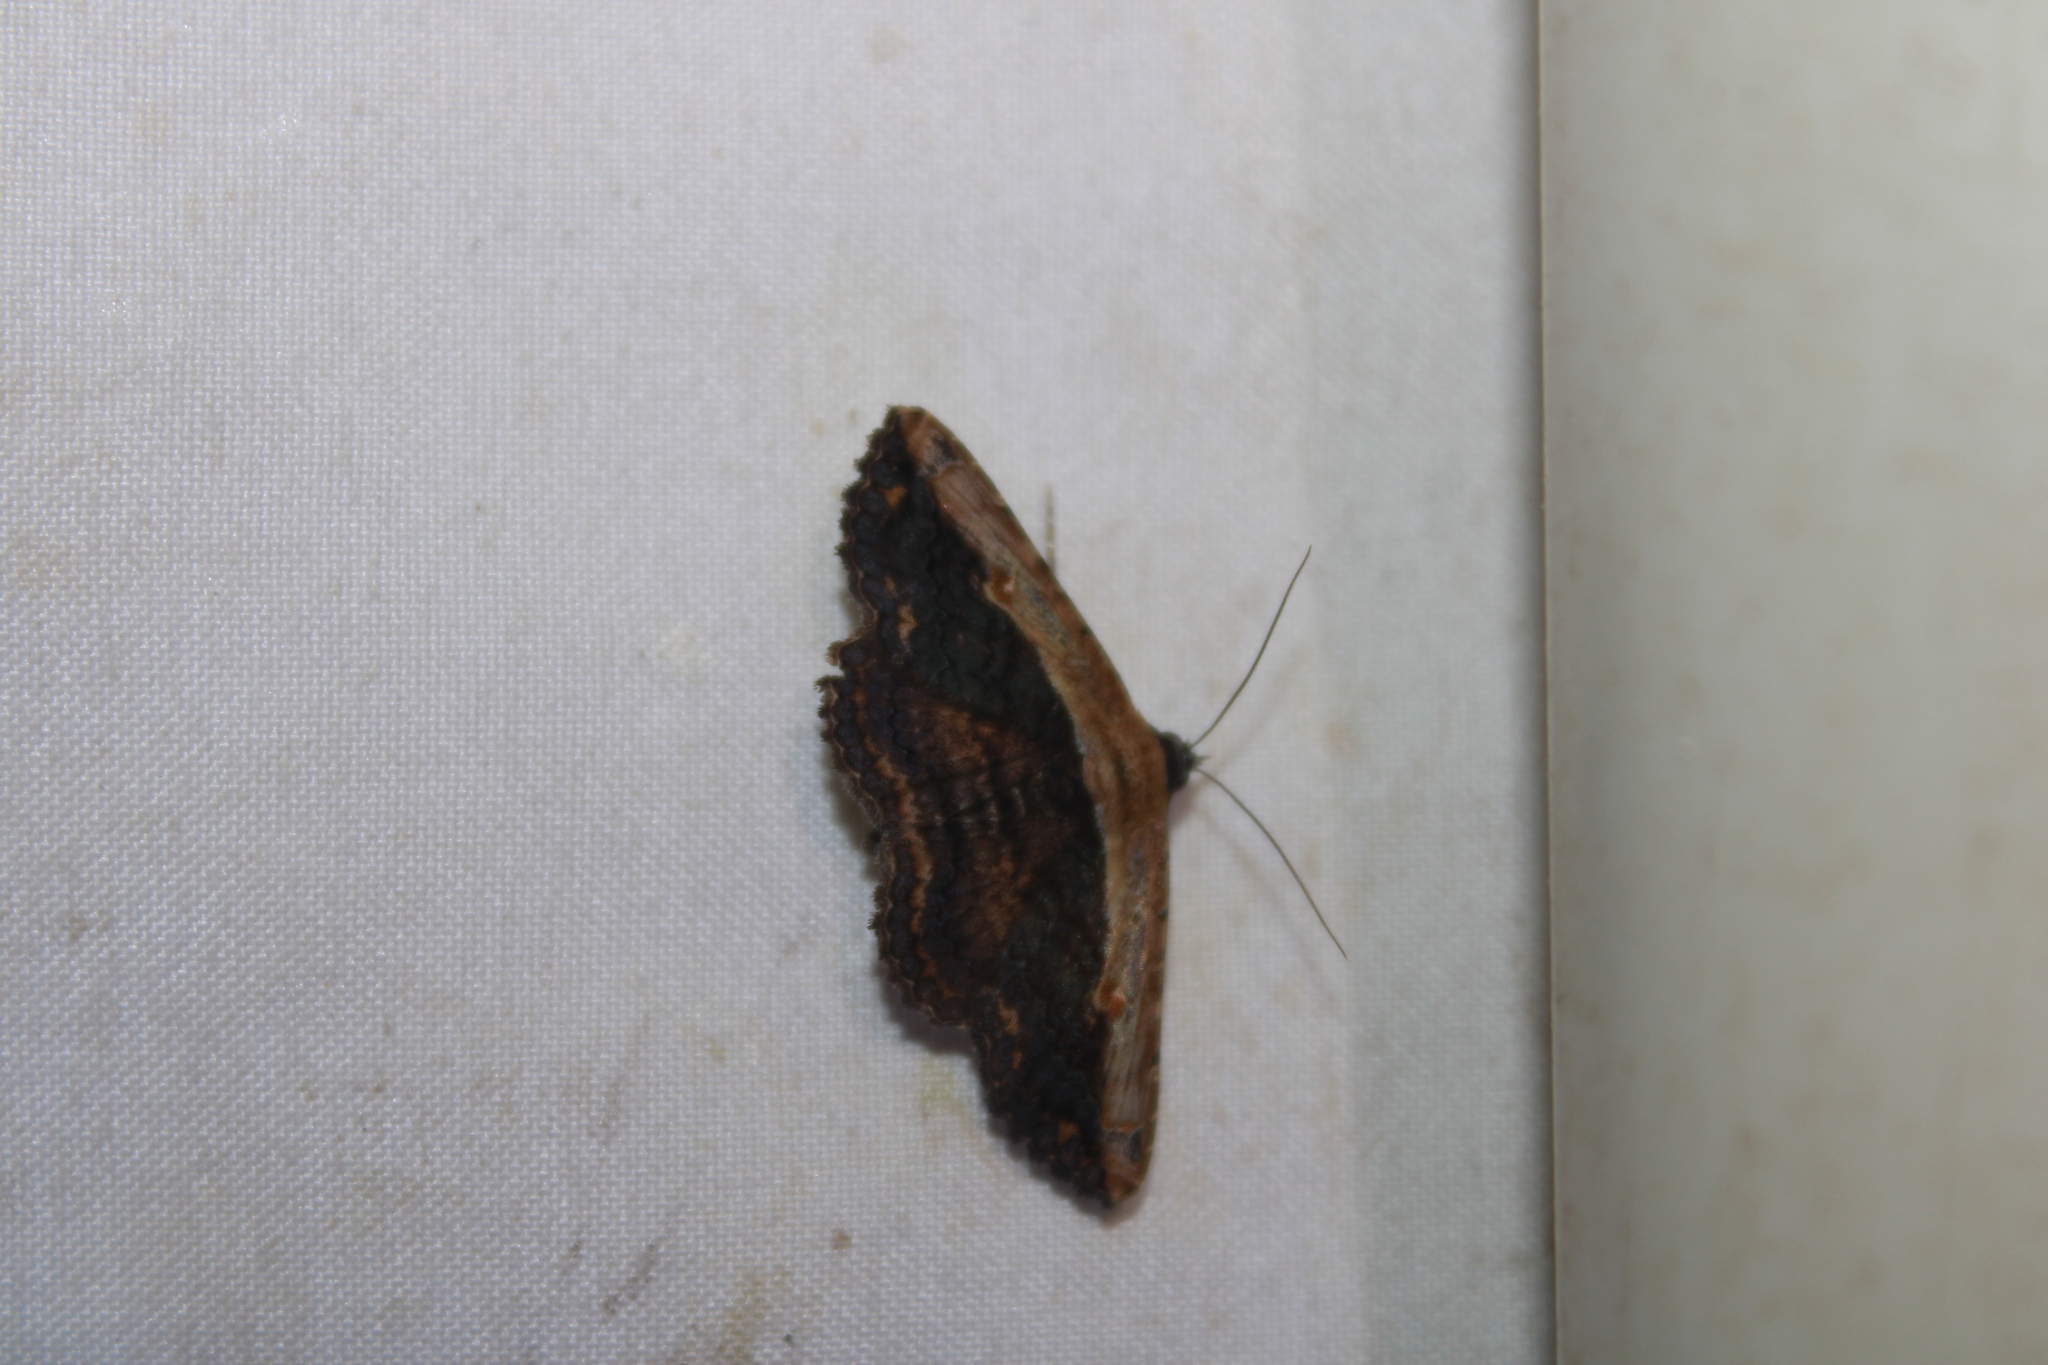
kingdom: Animalia
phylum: Arthropoda
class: Insecta
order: Lepidoptera
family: Erebidae
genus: Selenisa
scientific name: Selenisa sueroides
